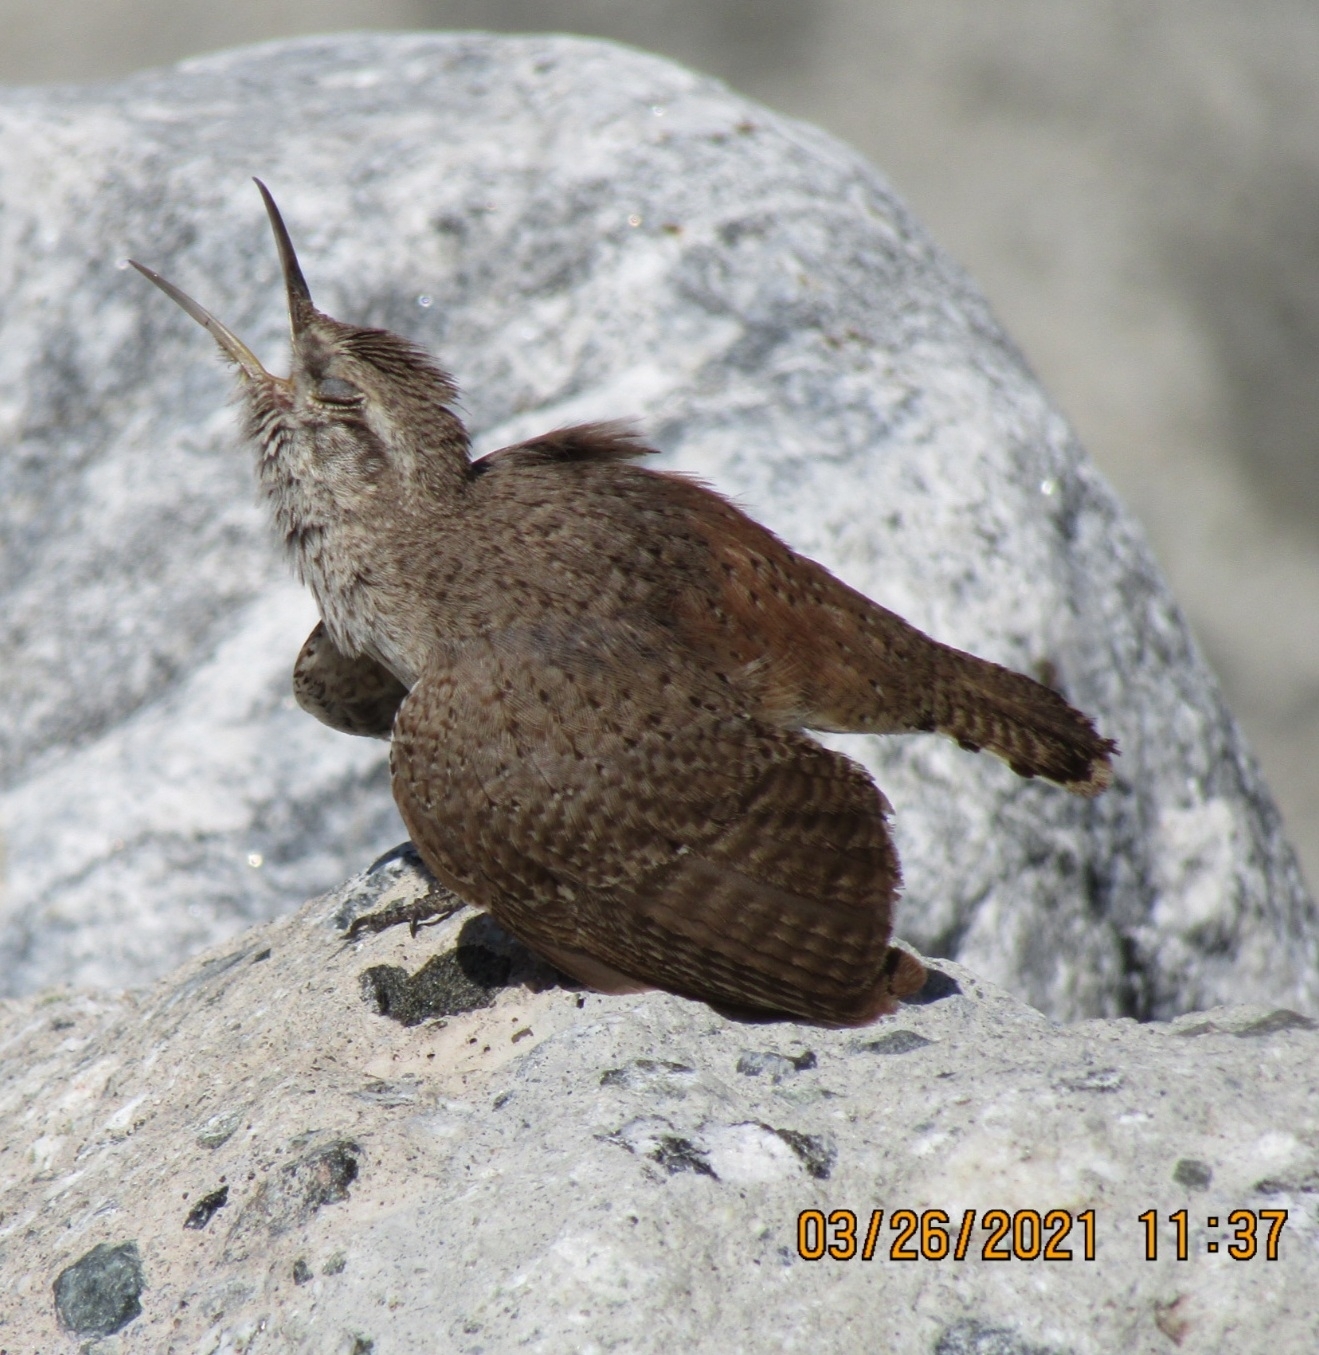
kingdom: Animalia
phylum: Chordata
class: Aves
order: Passeriformes
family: Troglodytidae
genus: Salpinctes
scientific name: Salpinctes obsoletus
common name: Rock wren
